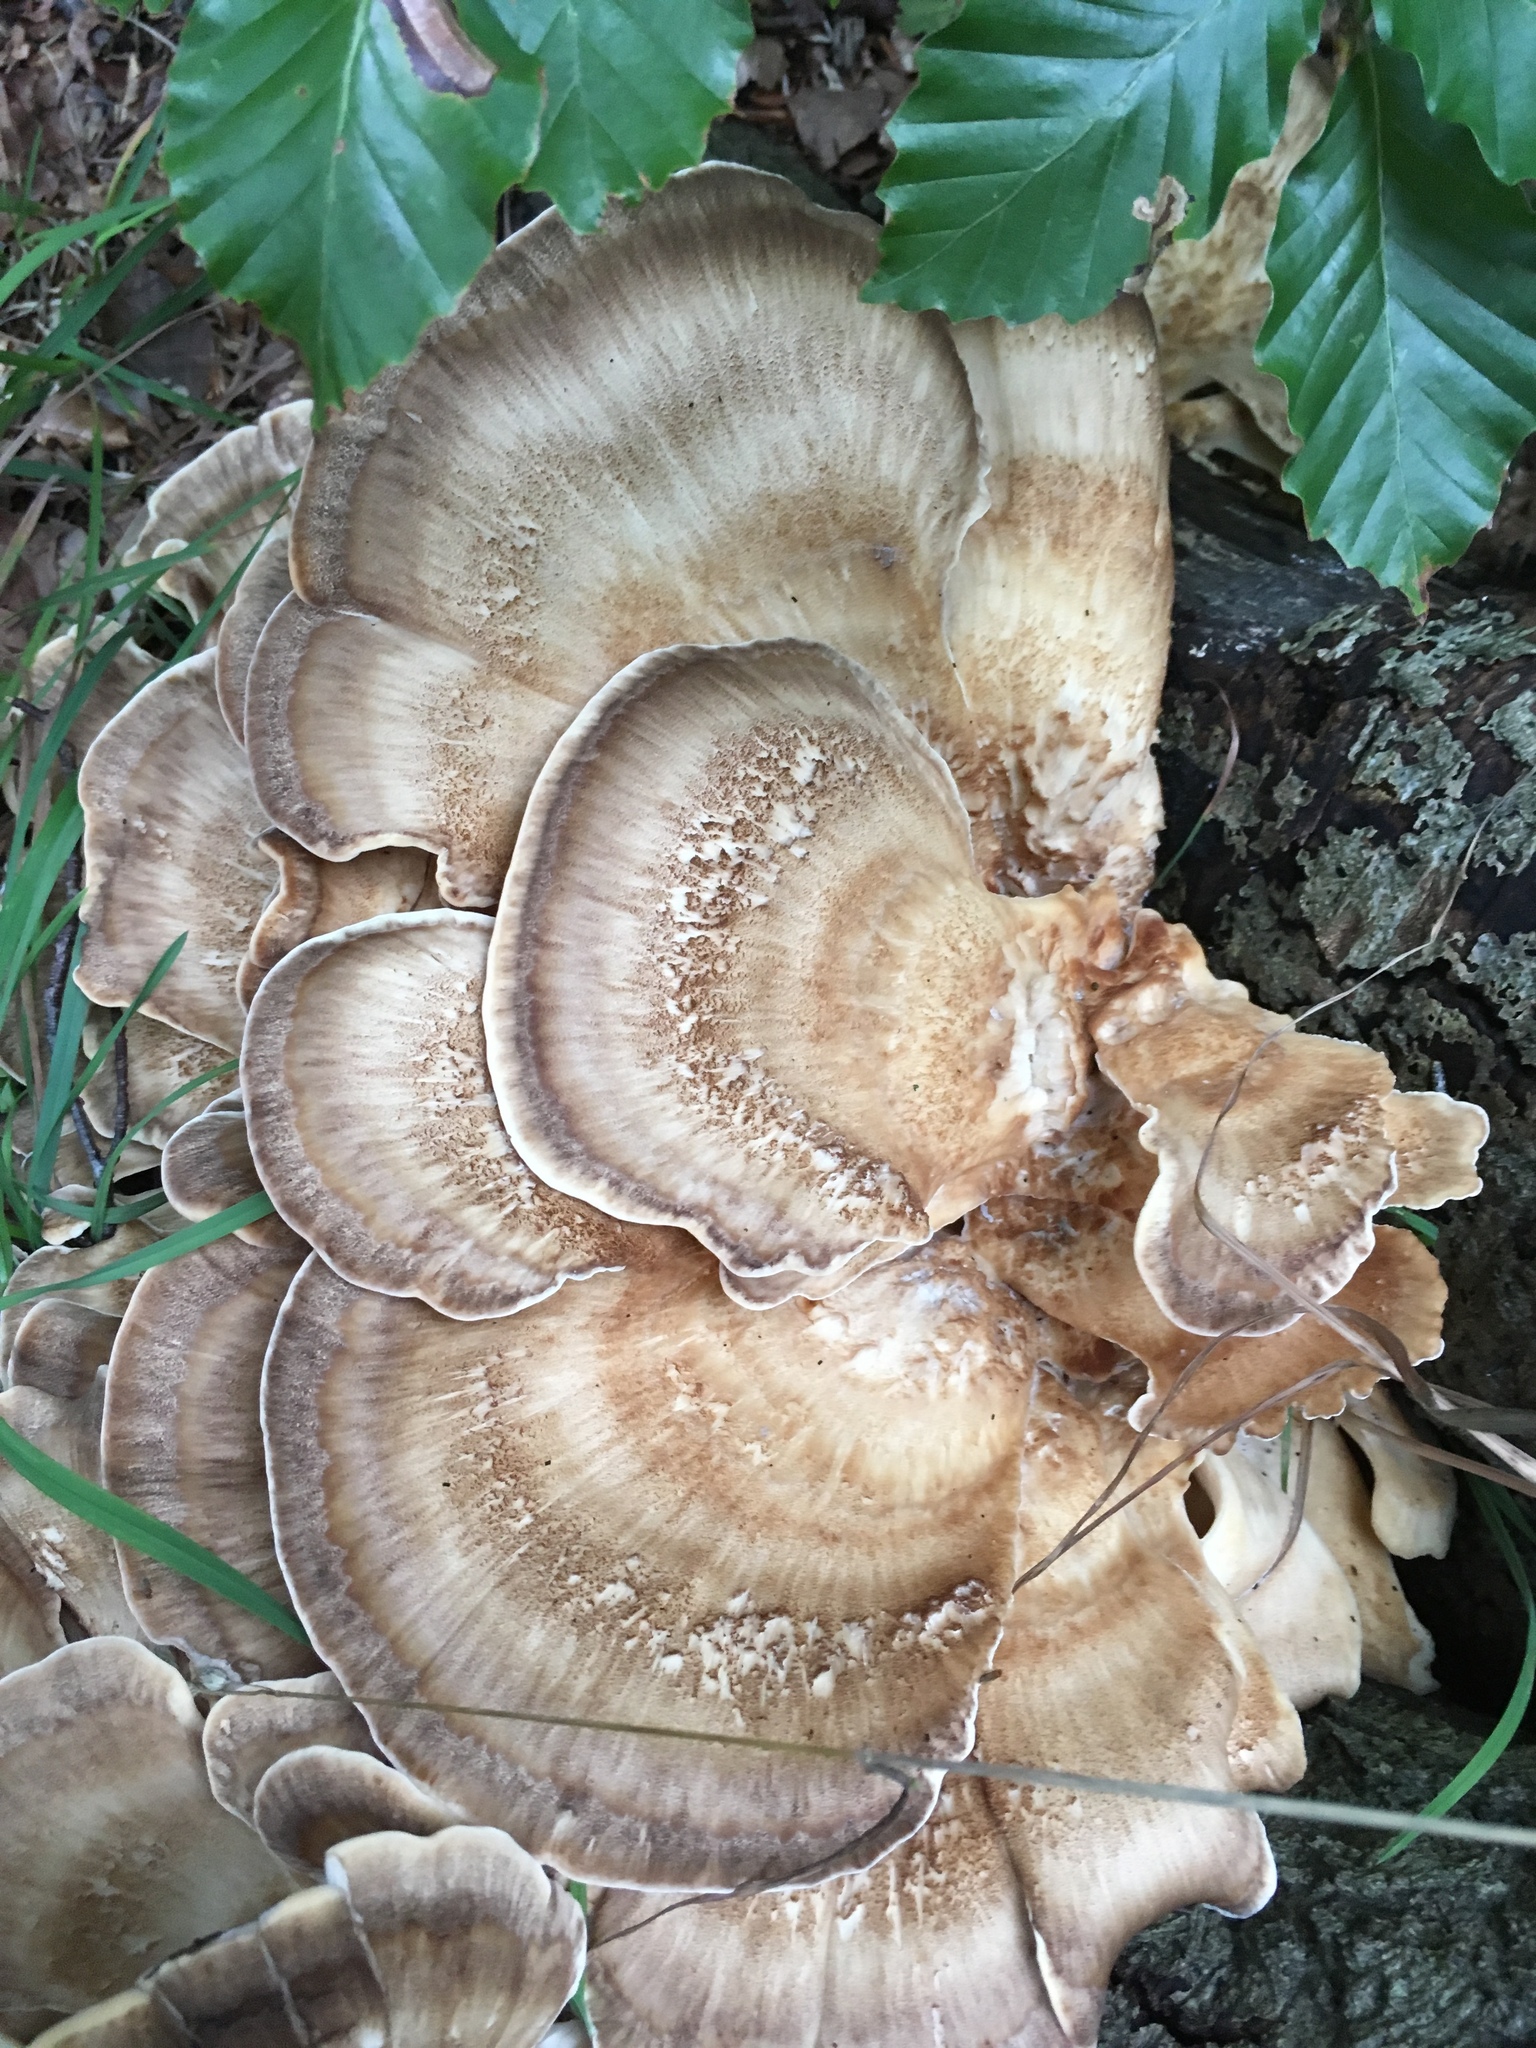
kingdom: Fungi
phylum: Basidiomycota
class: Agaricomycetes
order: Polyporales
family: Meripilaceae
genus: Meripilus
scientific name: Meripilus giganteus
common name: Giant polypore
